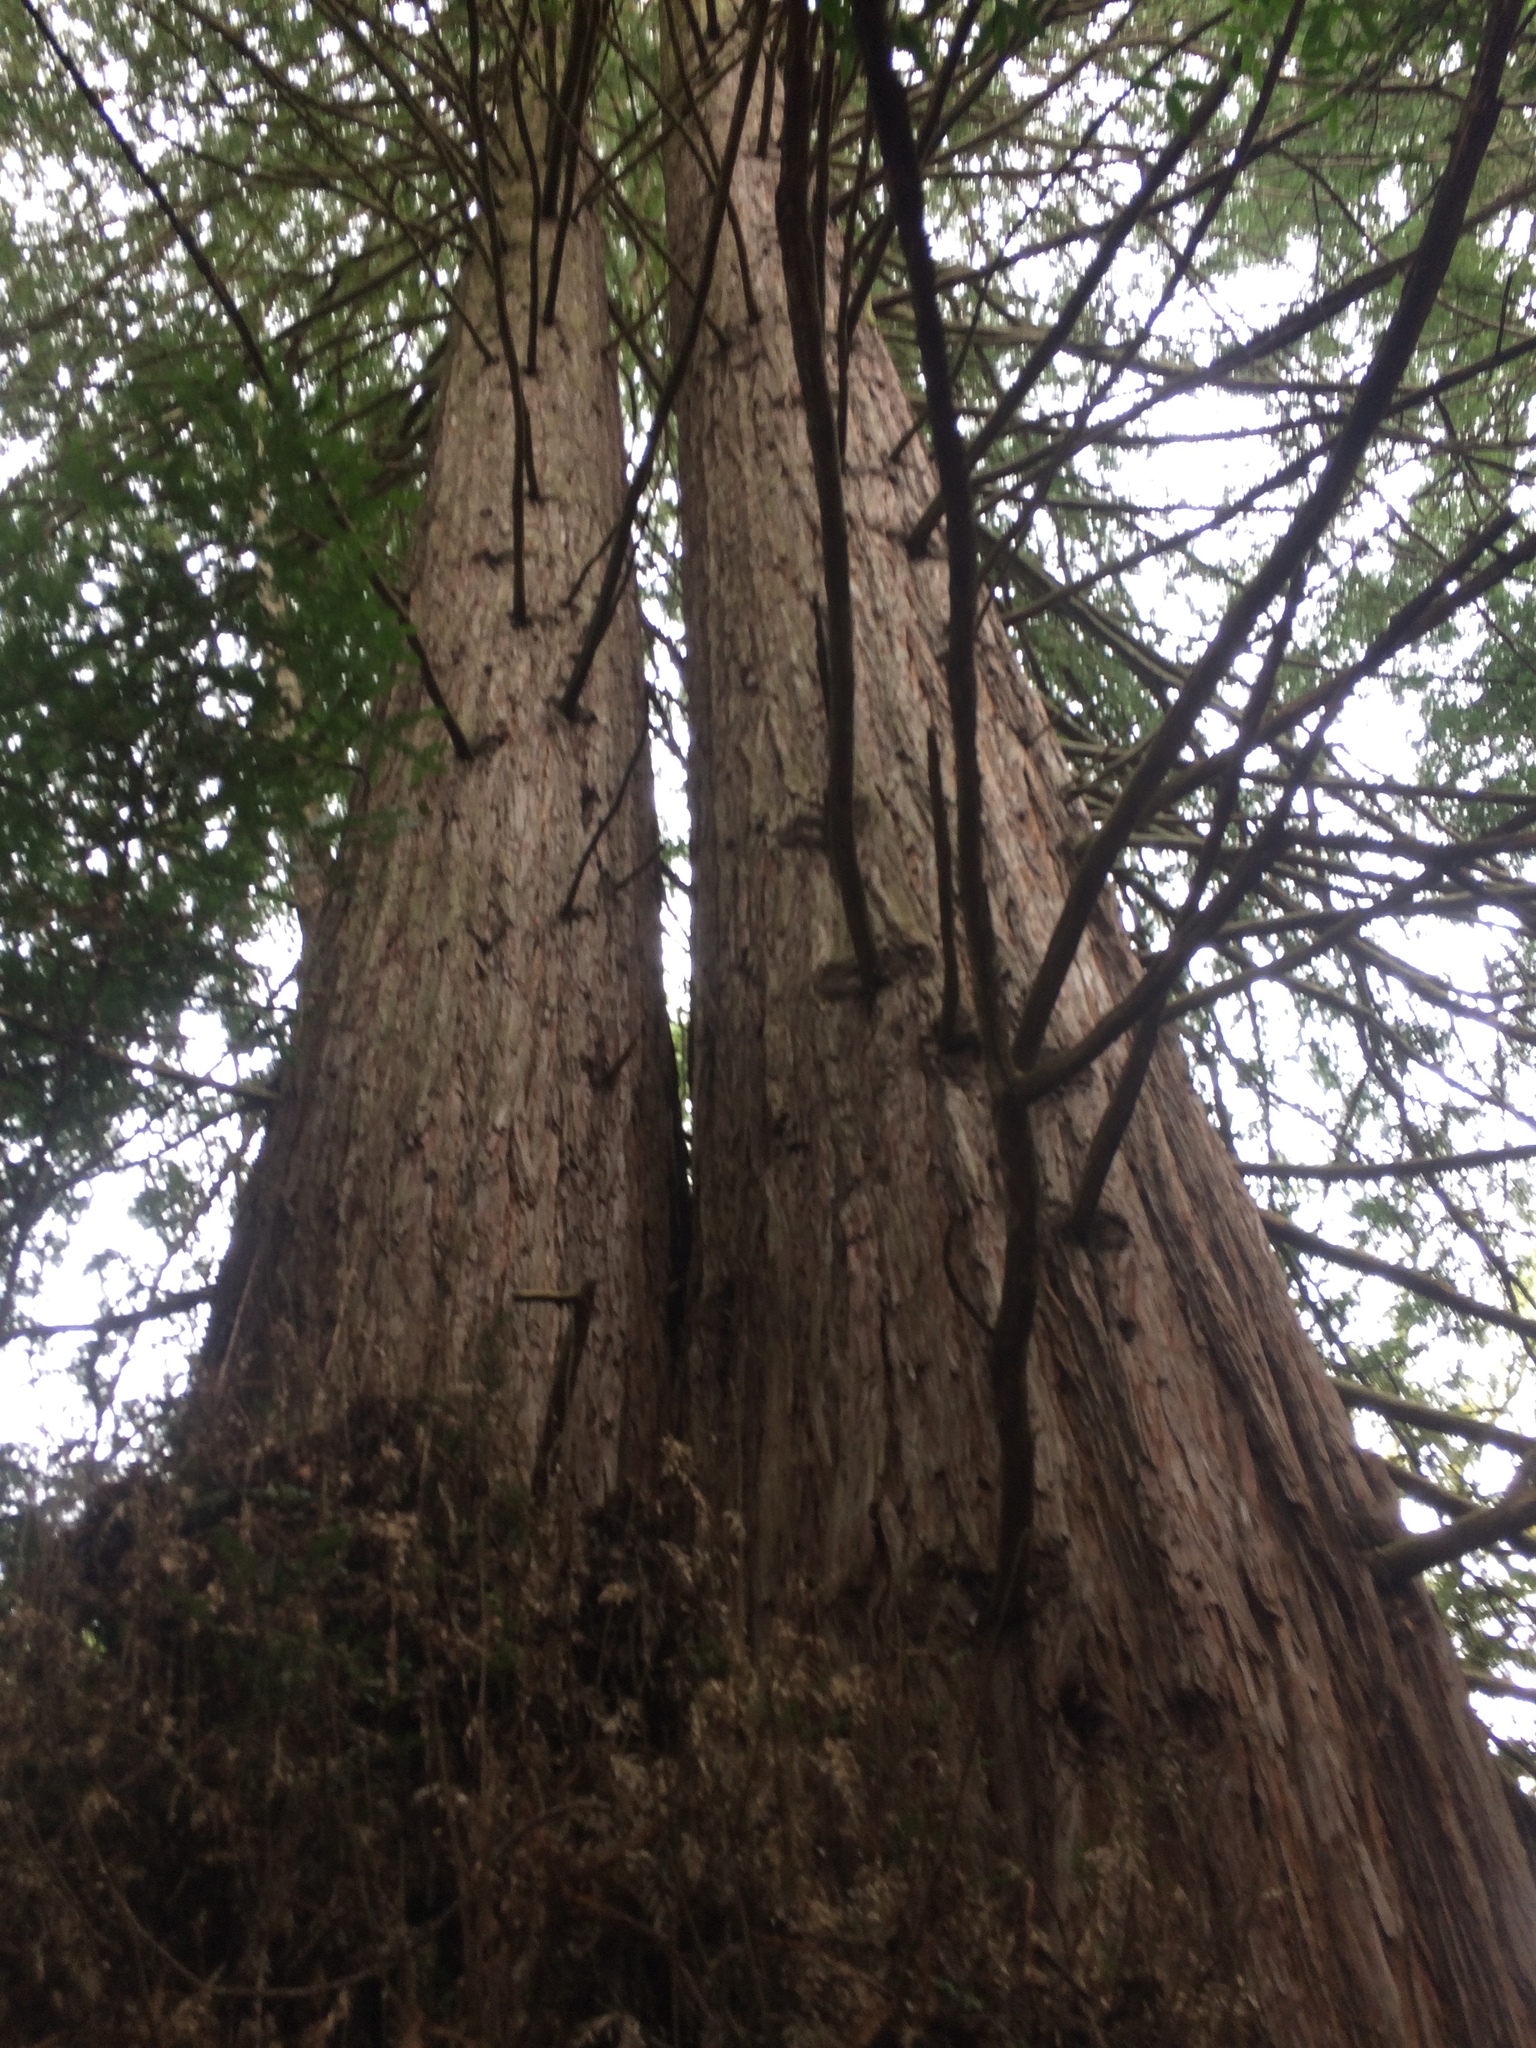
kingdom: Plantae
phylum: Tracheophyta
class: Pinopsida
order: Pinales
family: Cupressaceae
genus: Sequoia
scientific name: Sequoia sempervirens
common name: Coast redwood
